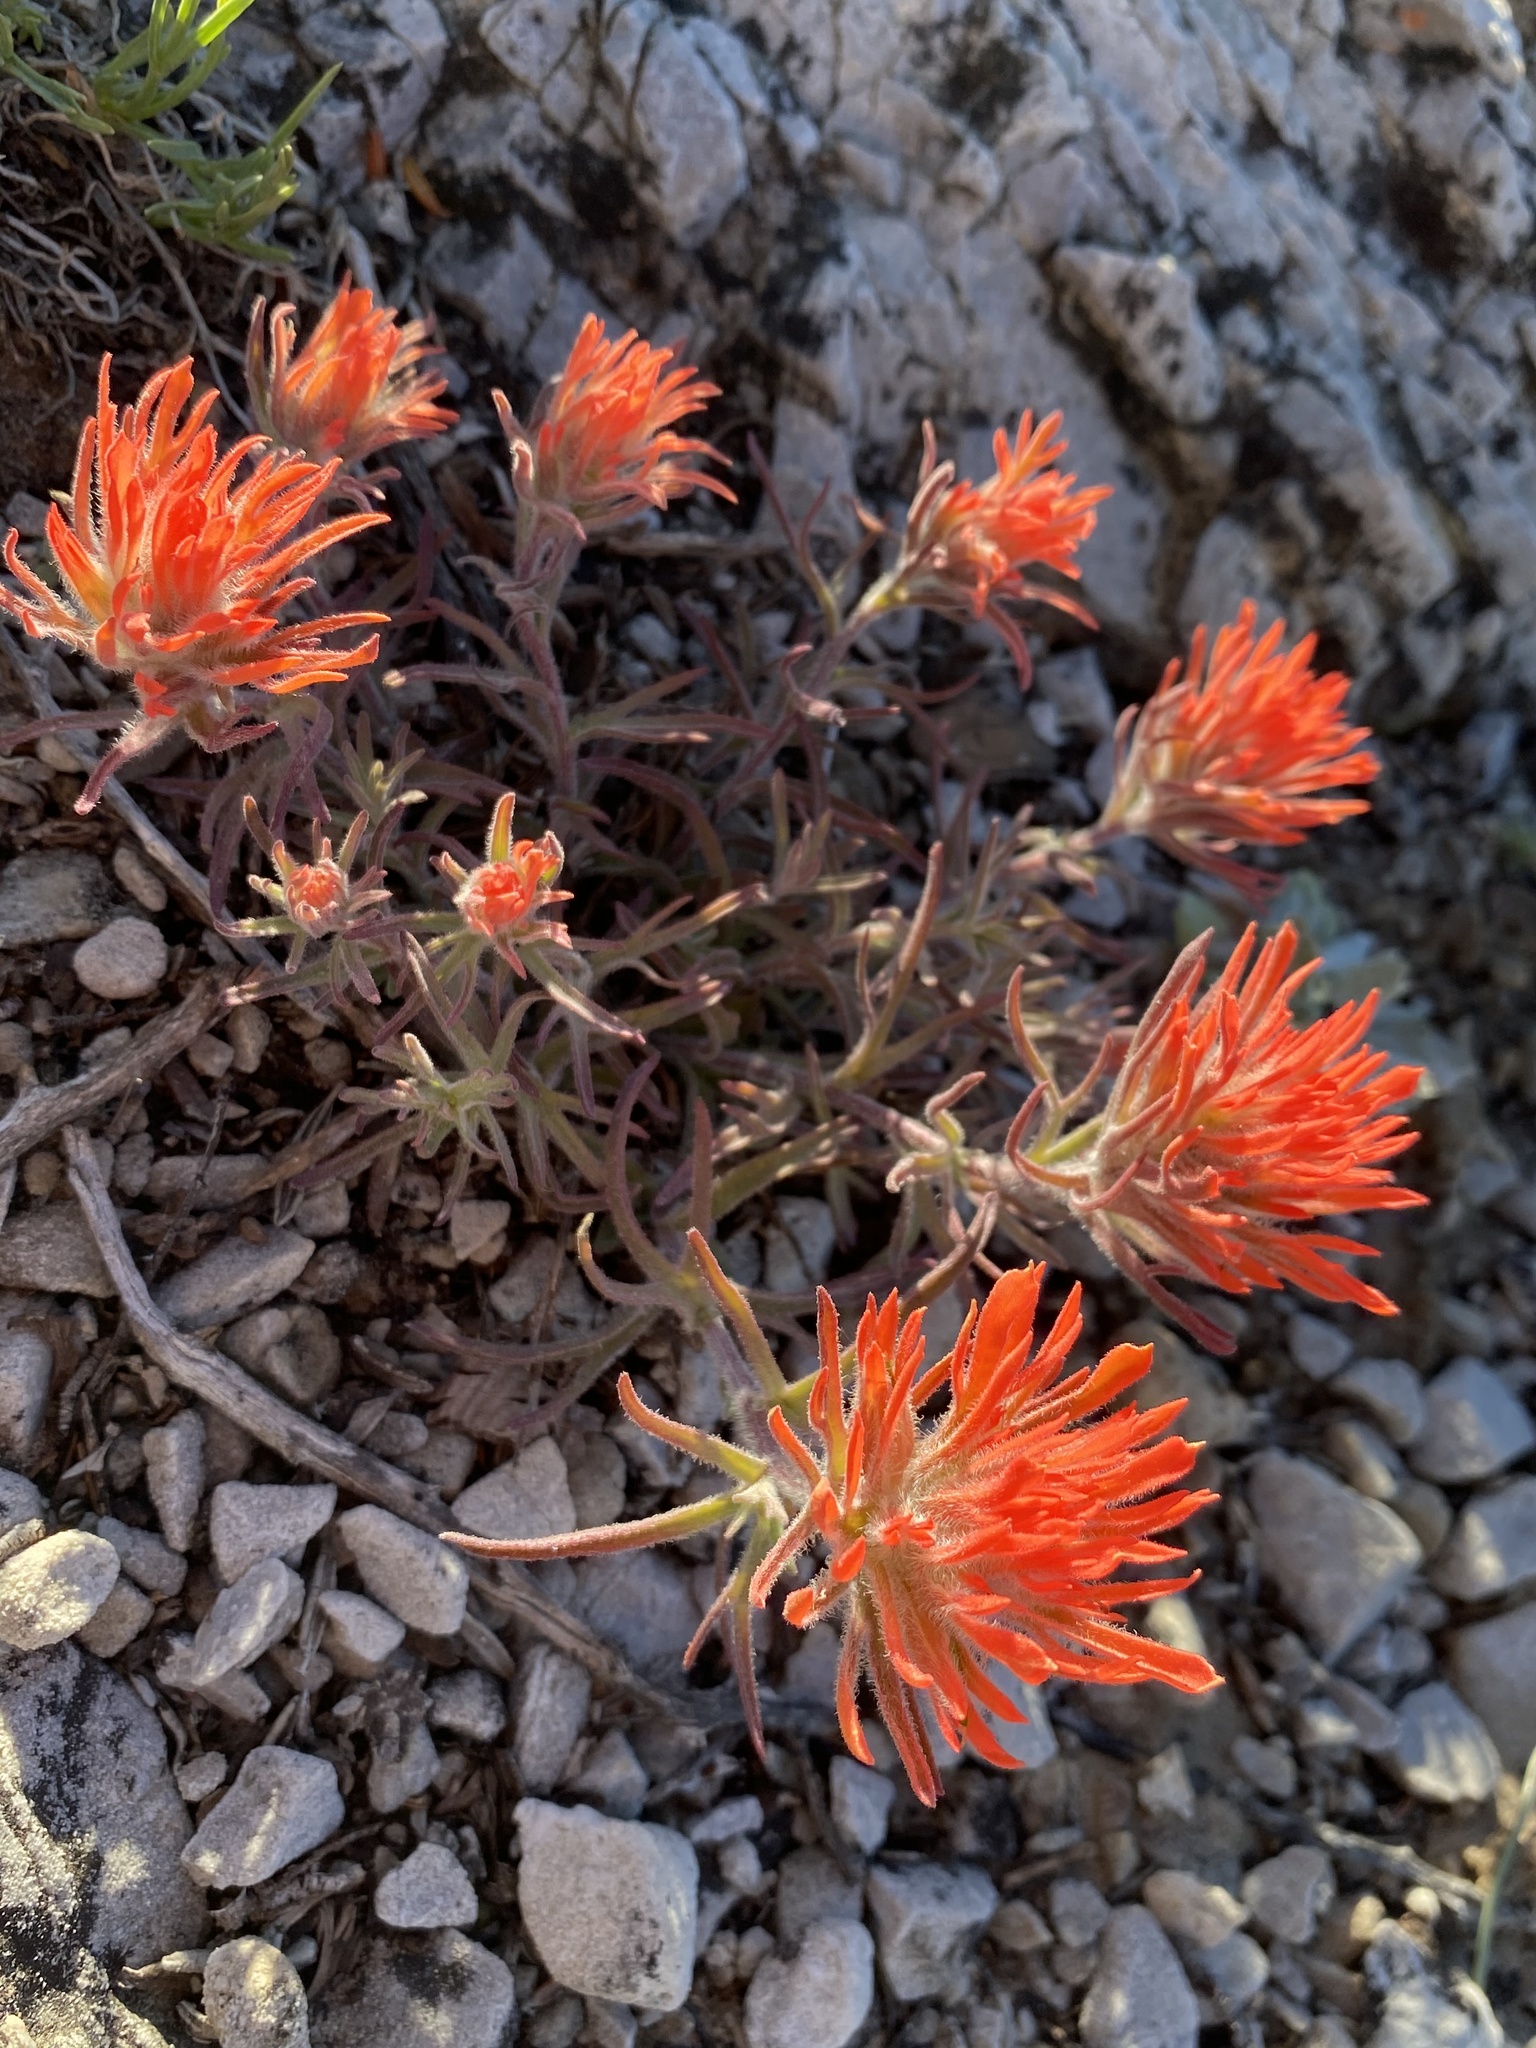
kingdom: Plantae
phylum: Tracheophyta
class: Magnoliopsida
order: Lamiales
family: Orobanchaceae
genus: Castilleja
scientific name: Castilleja scabrida
